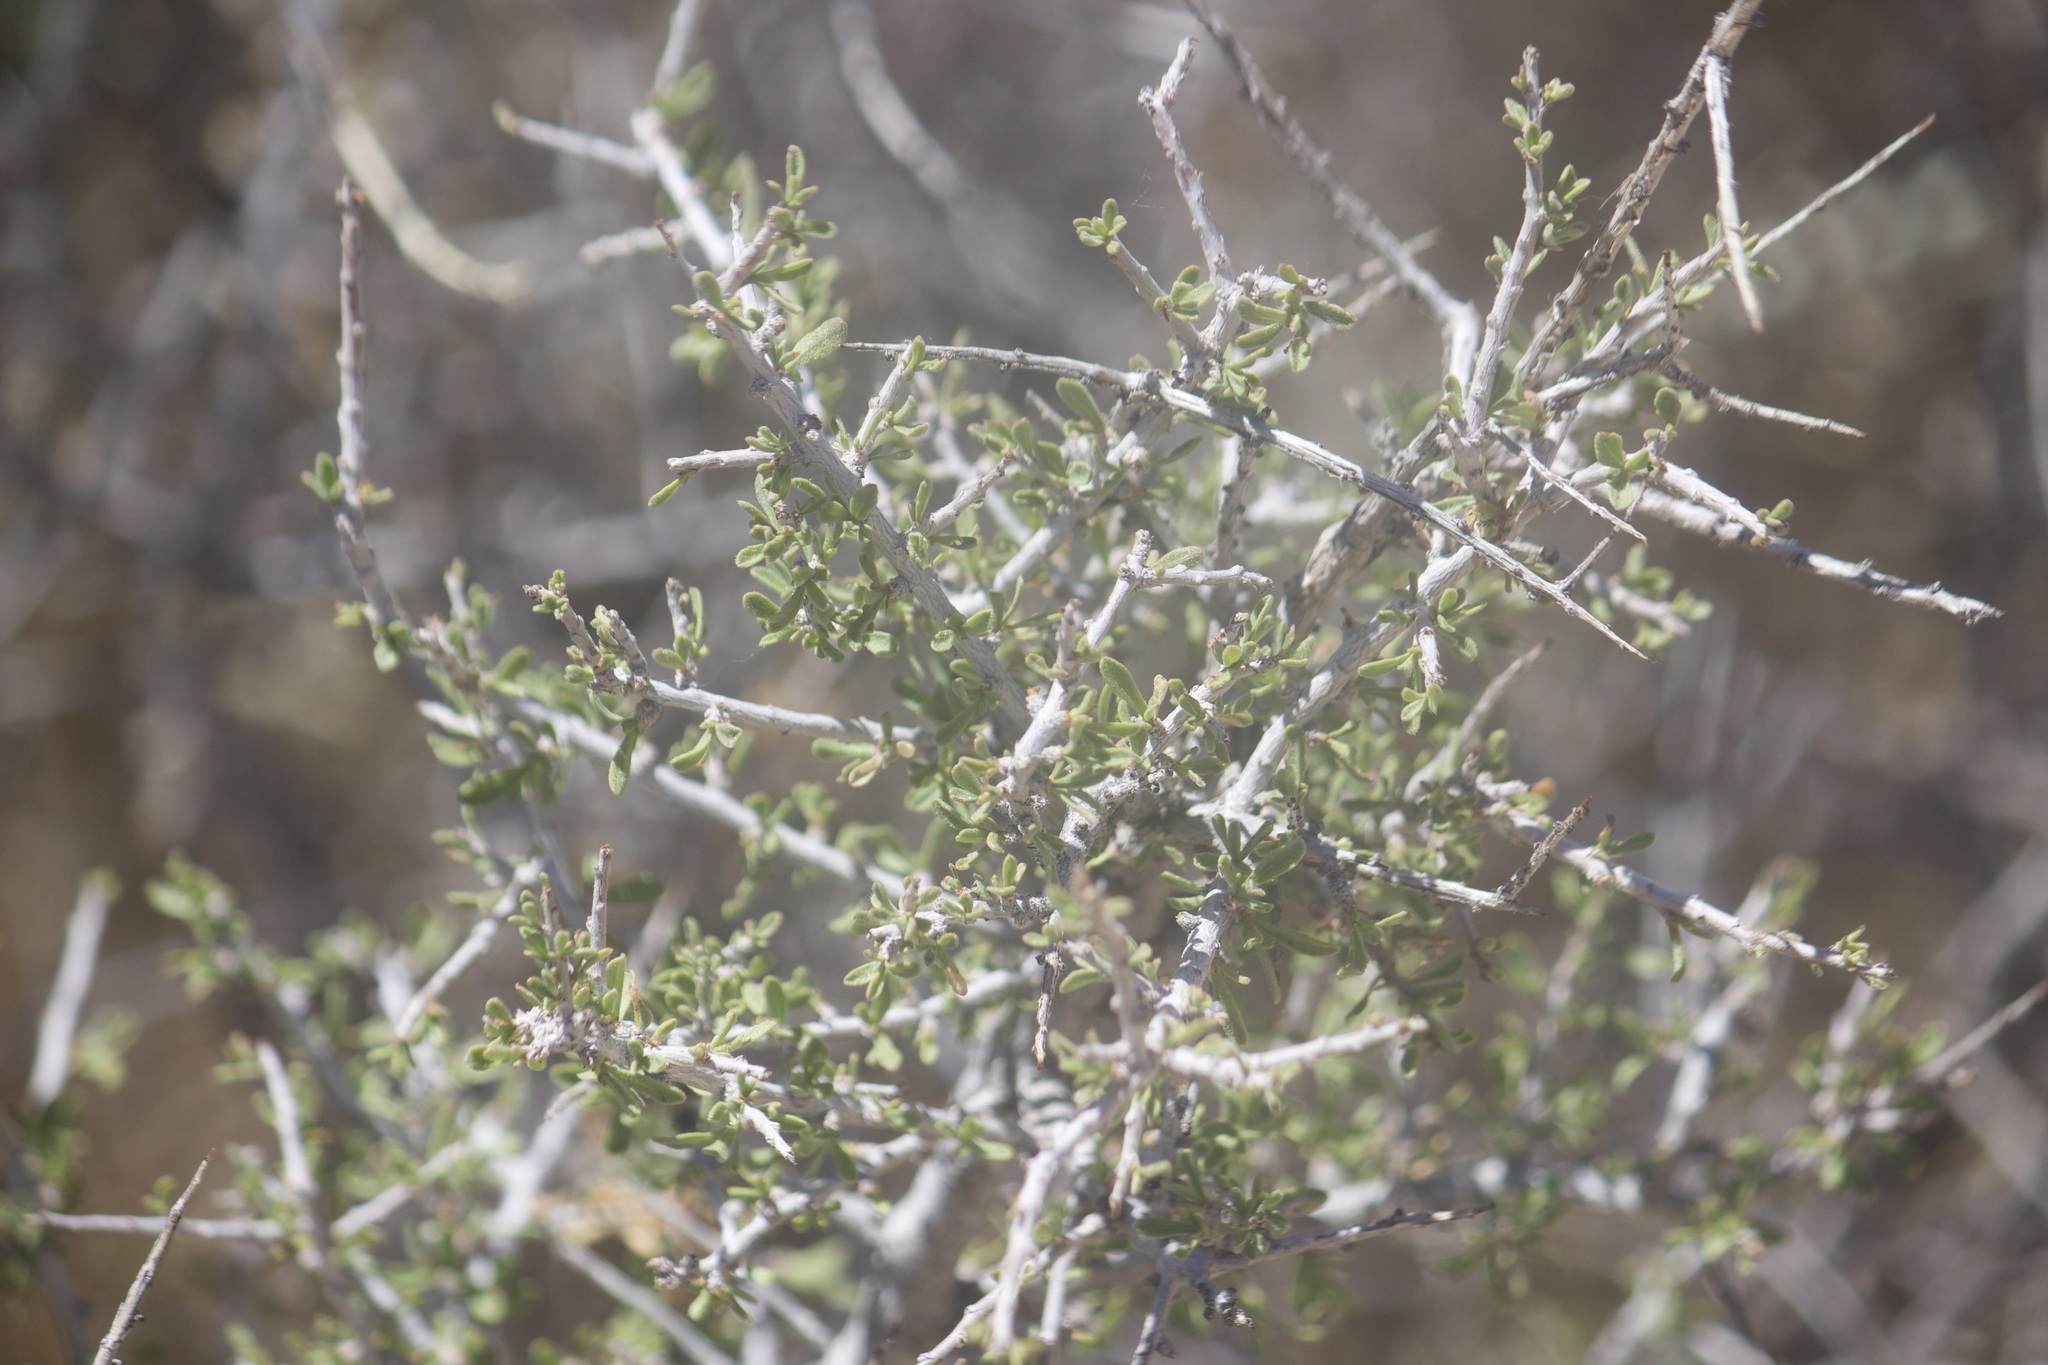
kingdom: Plantae
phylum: Tracheophyta
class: Magnoliopsida
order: Rosales
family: Rosaceae
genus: Prunus
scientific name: Prunus fasciculata
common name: Desert almond
